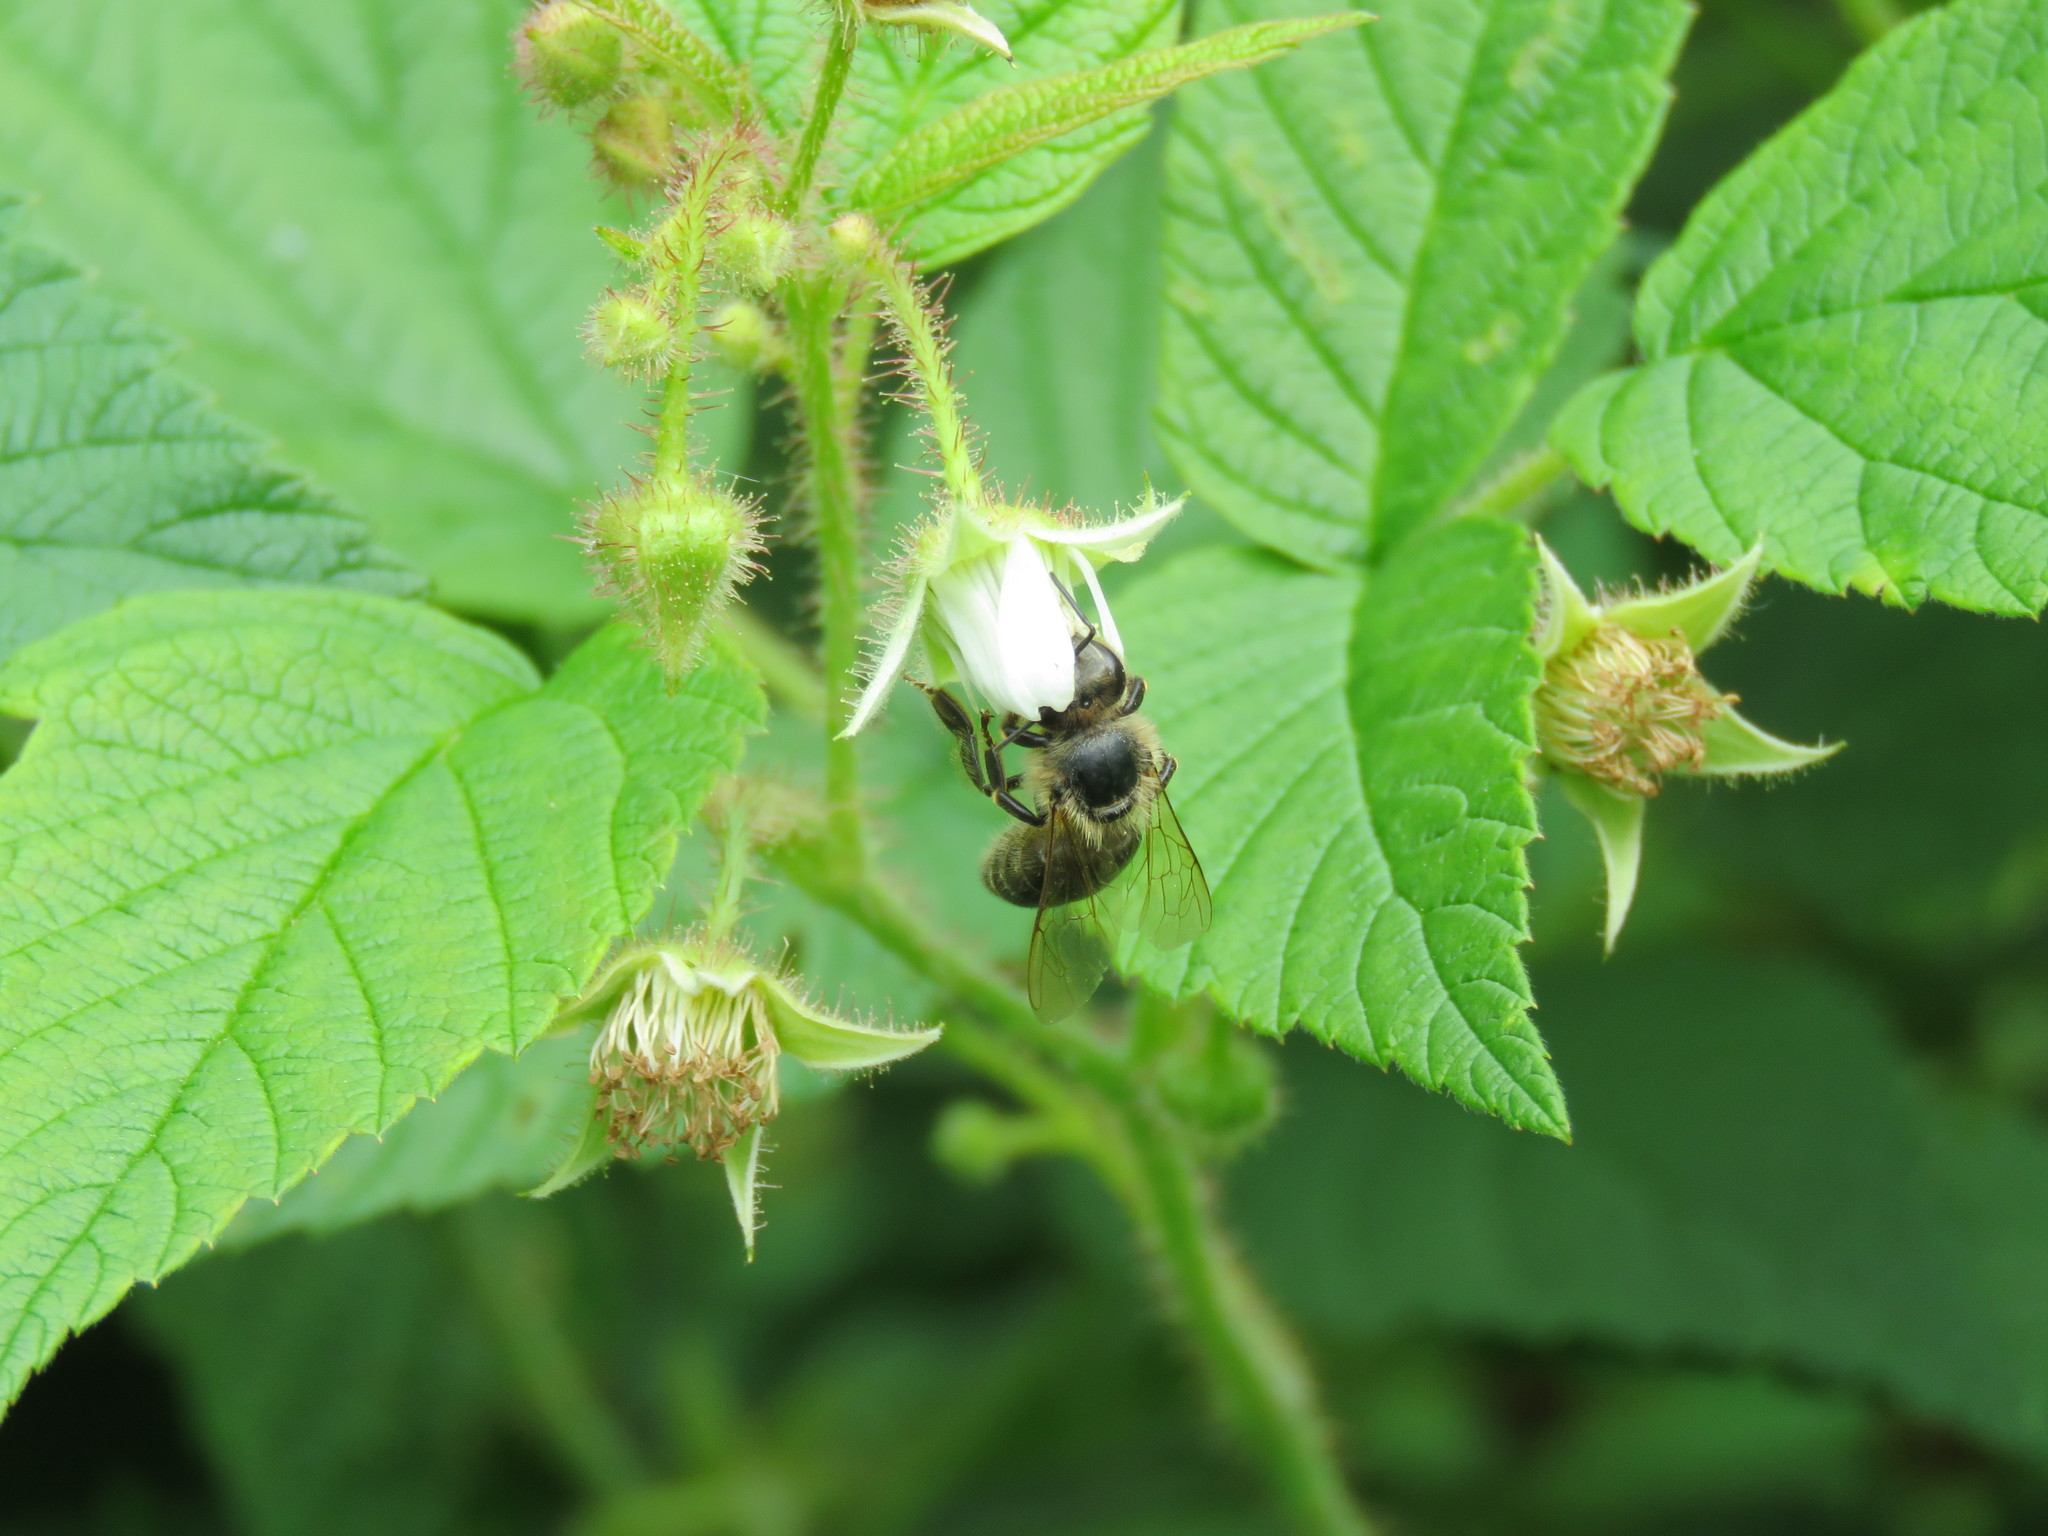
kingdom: Animalia
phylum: Arthropoda
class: Insecta
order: Hymenoptera
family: Apidae
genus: Apis
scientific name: Apis mellifera
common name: Honey bee
